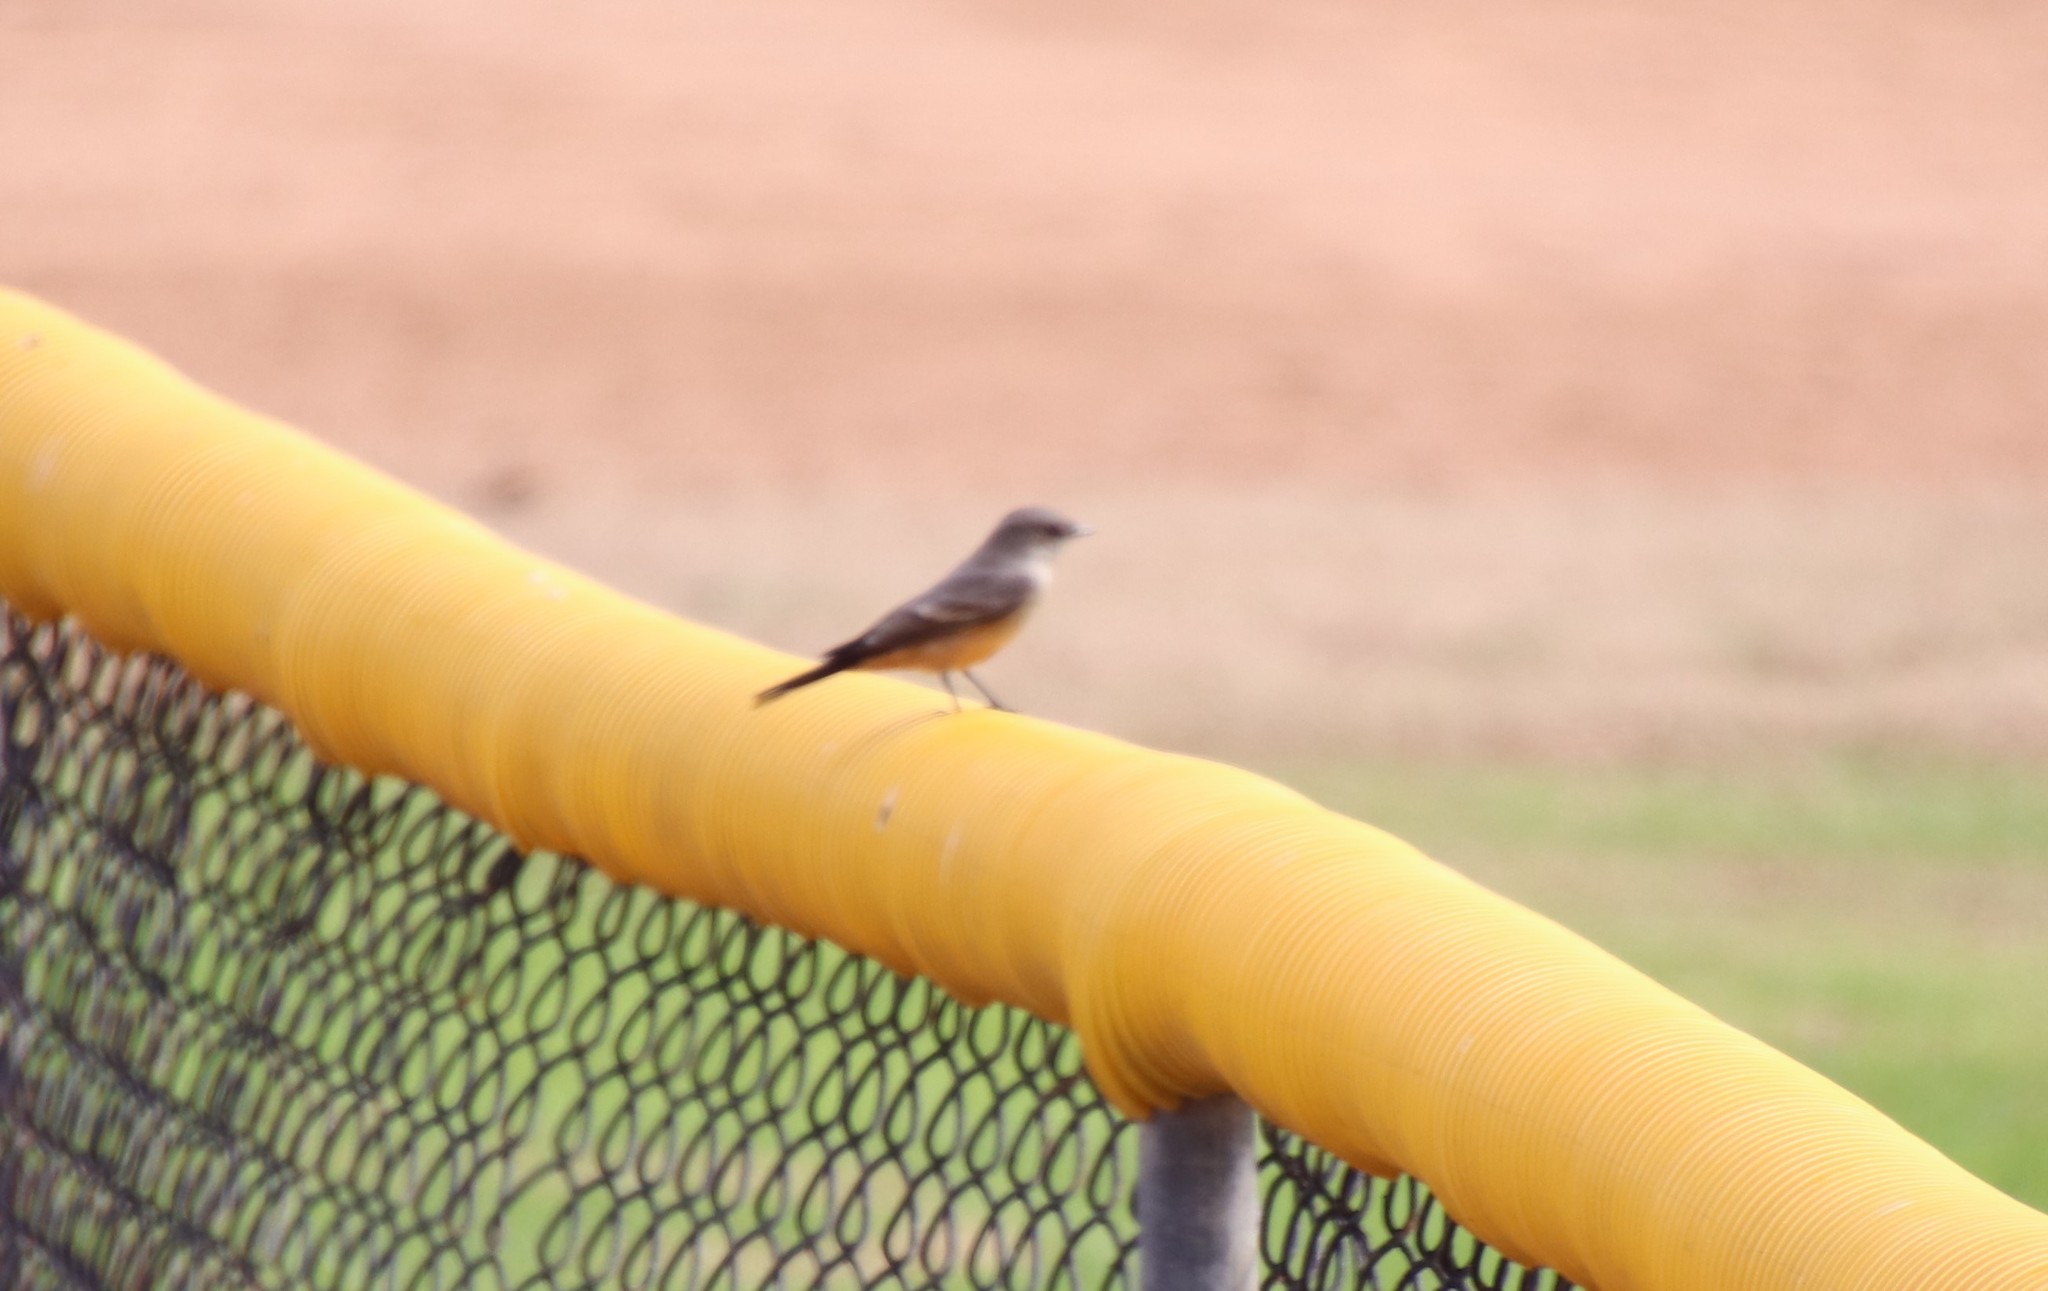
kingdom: Animalia
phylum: Chordata
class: Aves
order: Passeriformes
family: Tyrannidae
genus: Sayornis
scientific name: Sayornis saya
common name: Say's phoebe
